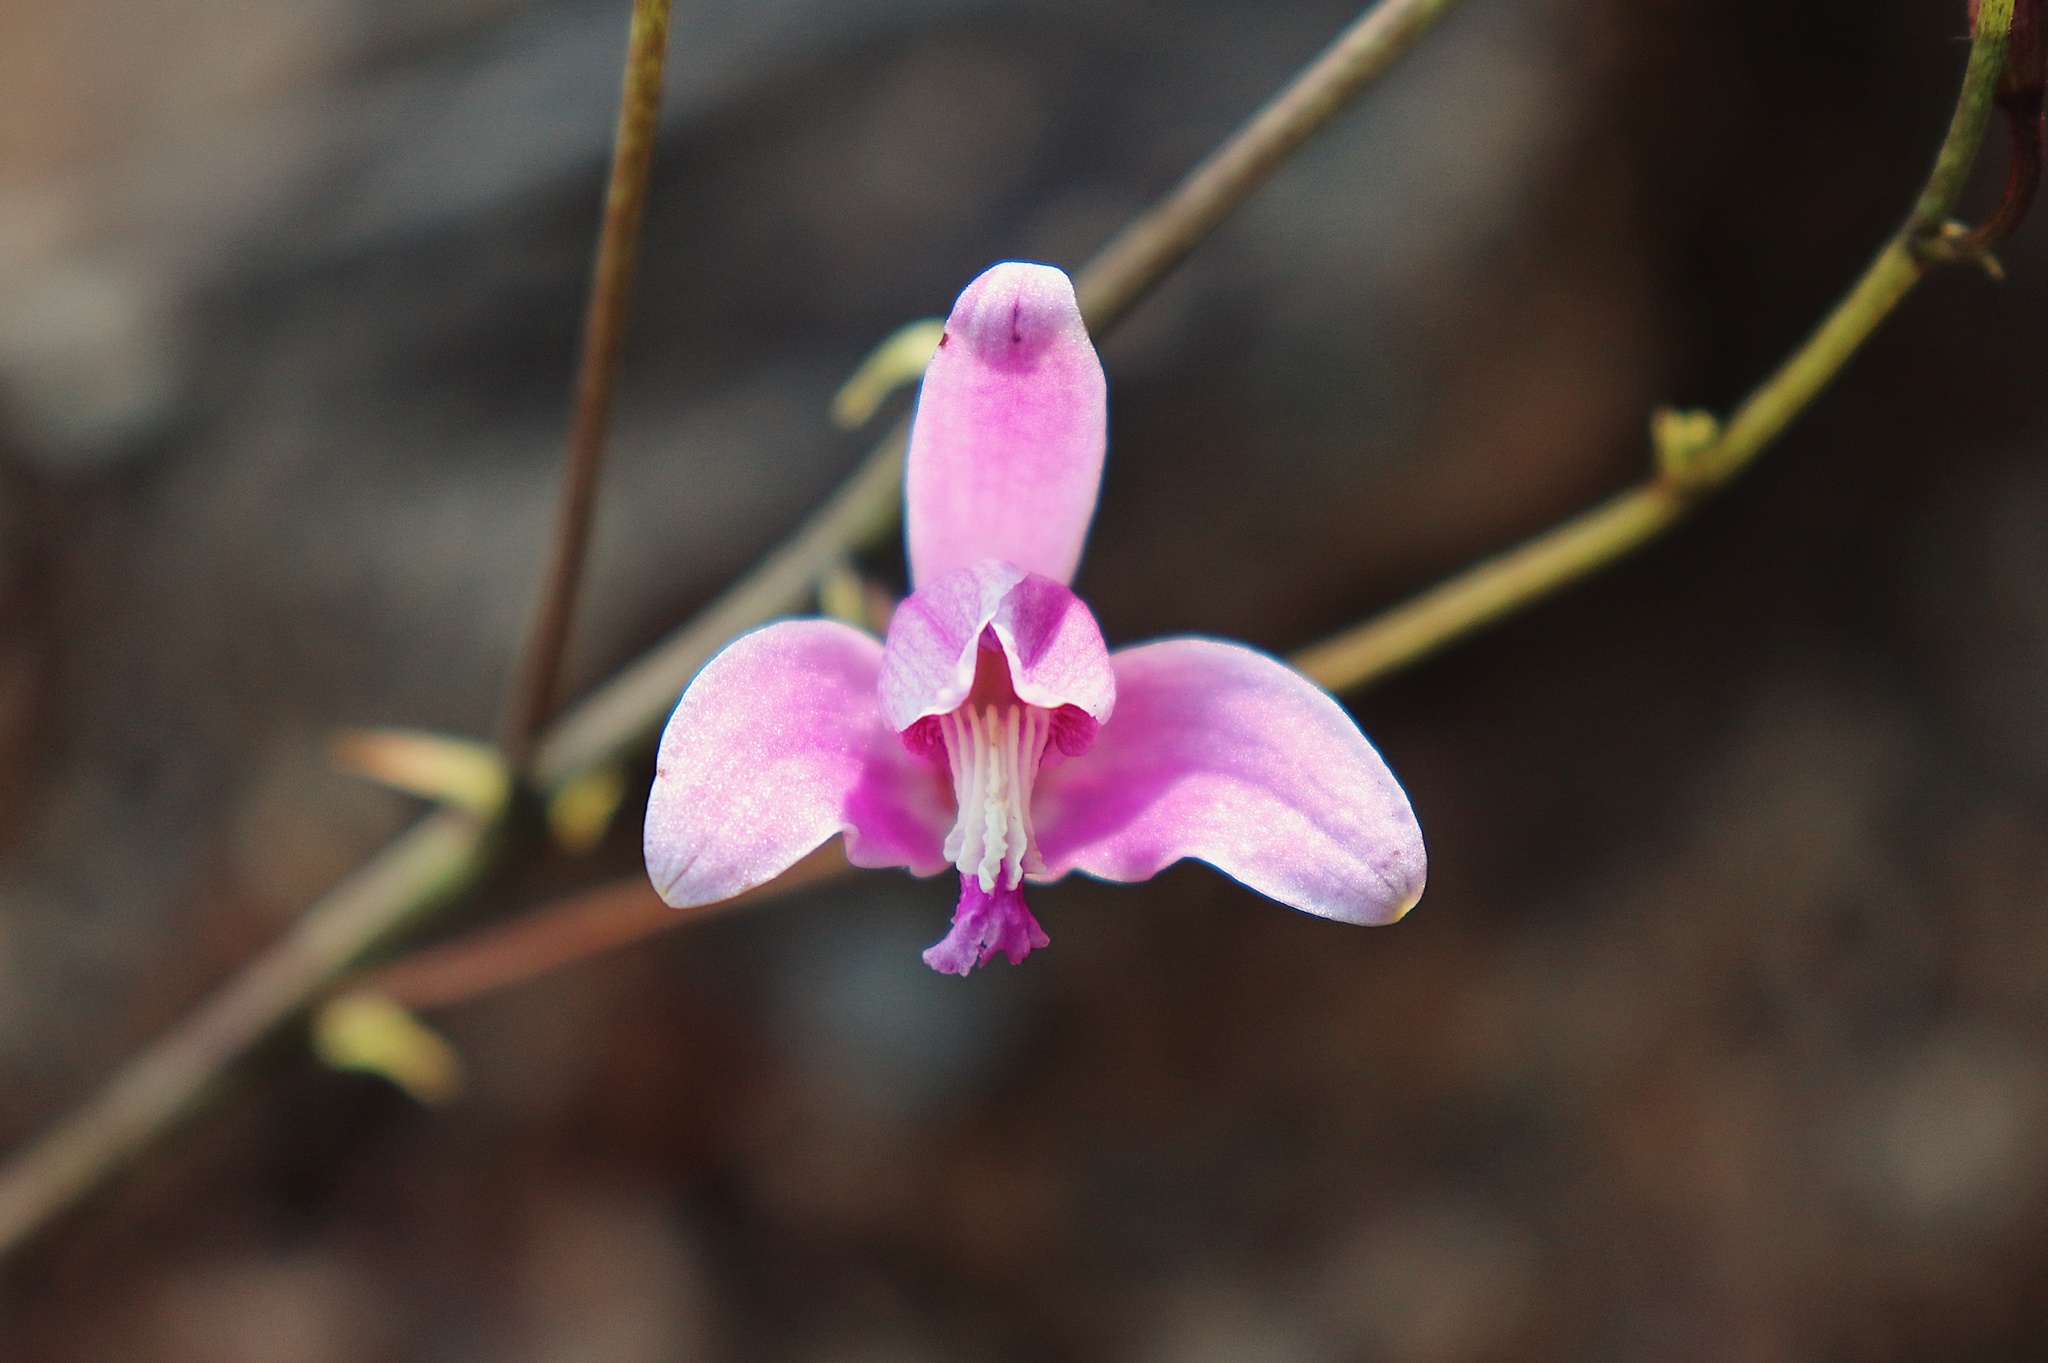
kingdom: Plantae
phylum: Tracheophyta
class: Liliopsida
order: Asparagales
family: Orchidaceae
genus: Bletia
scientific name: Bletia purpurea
